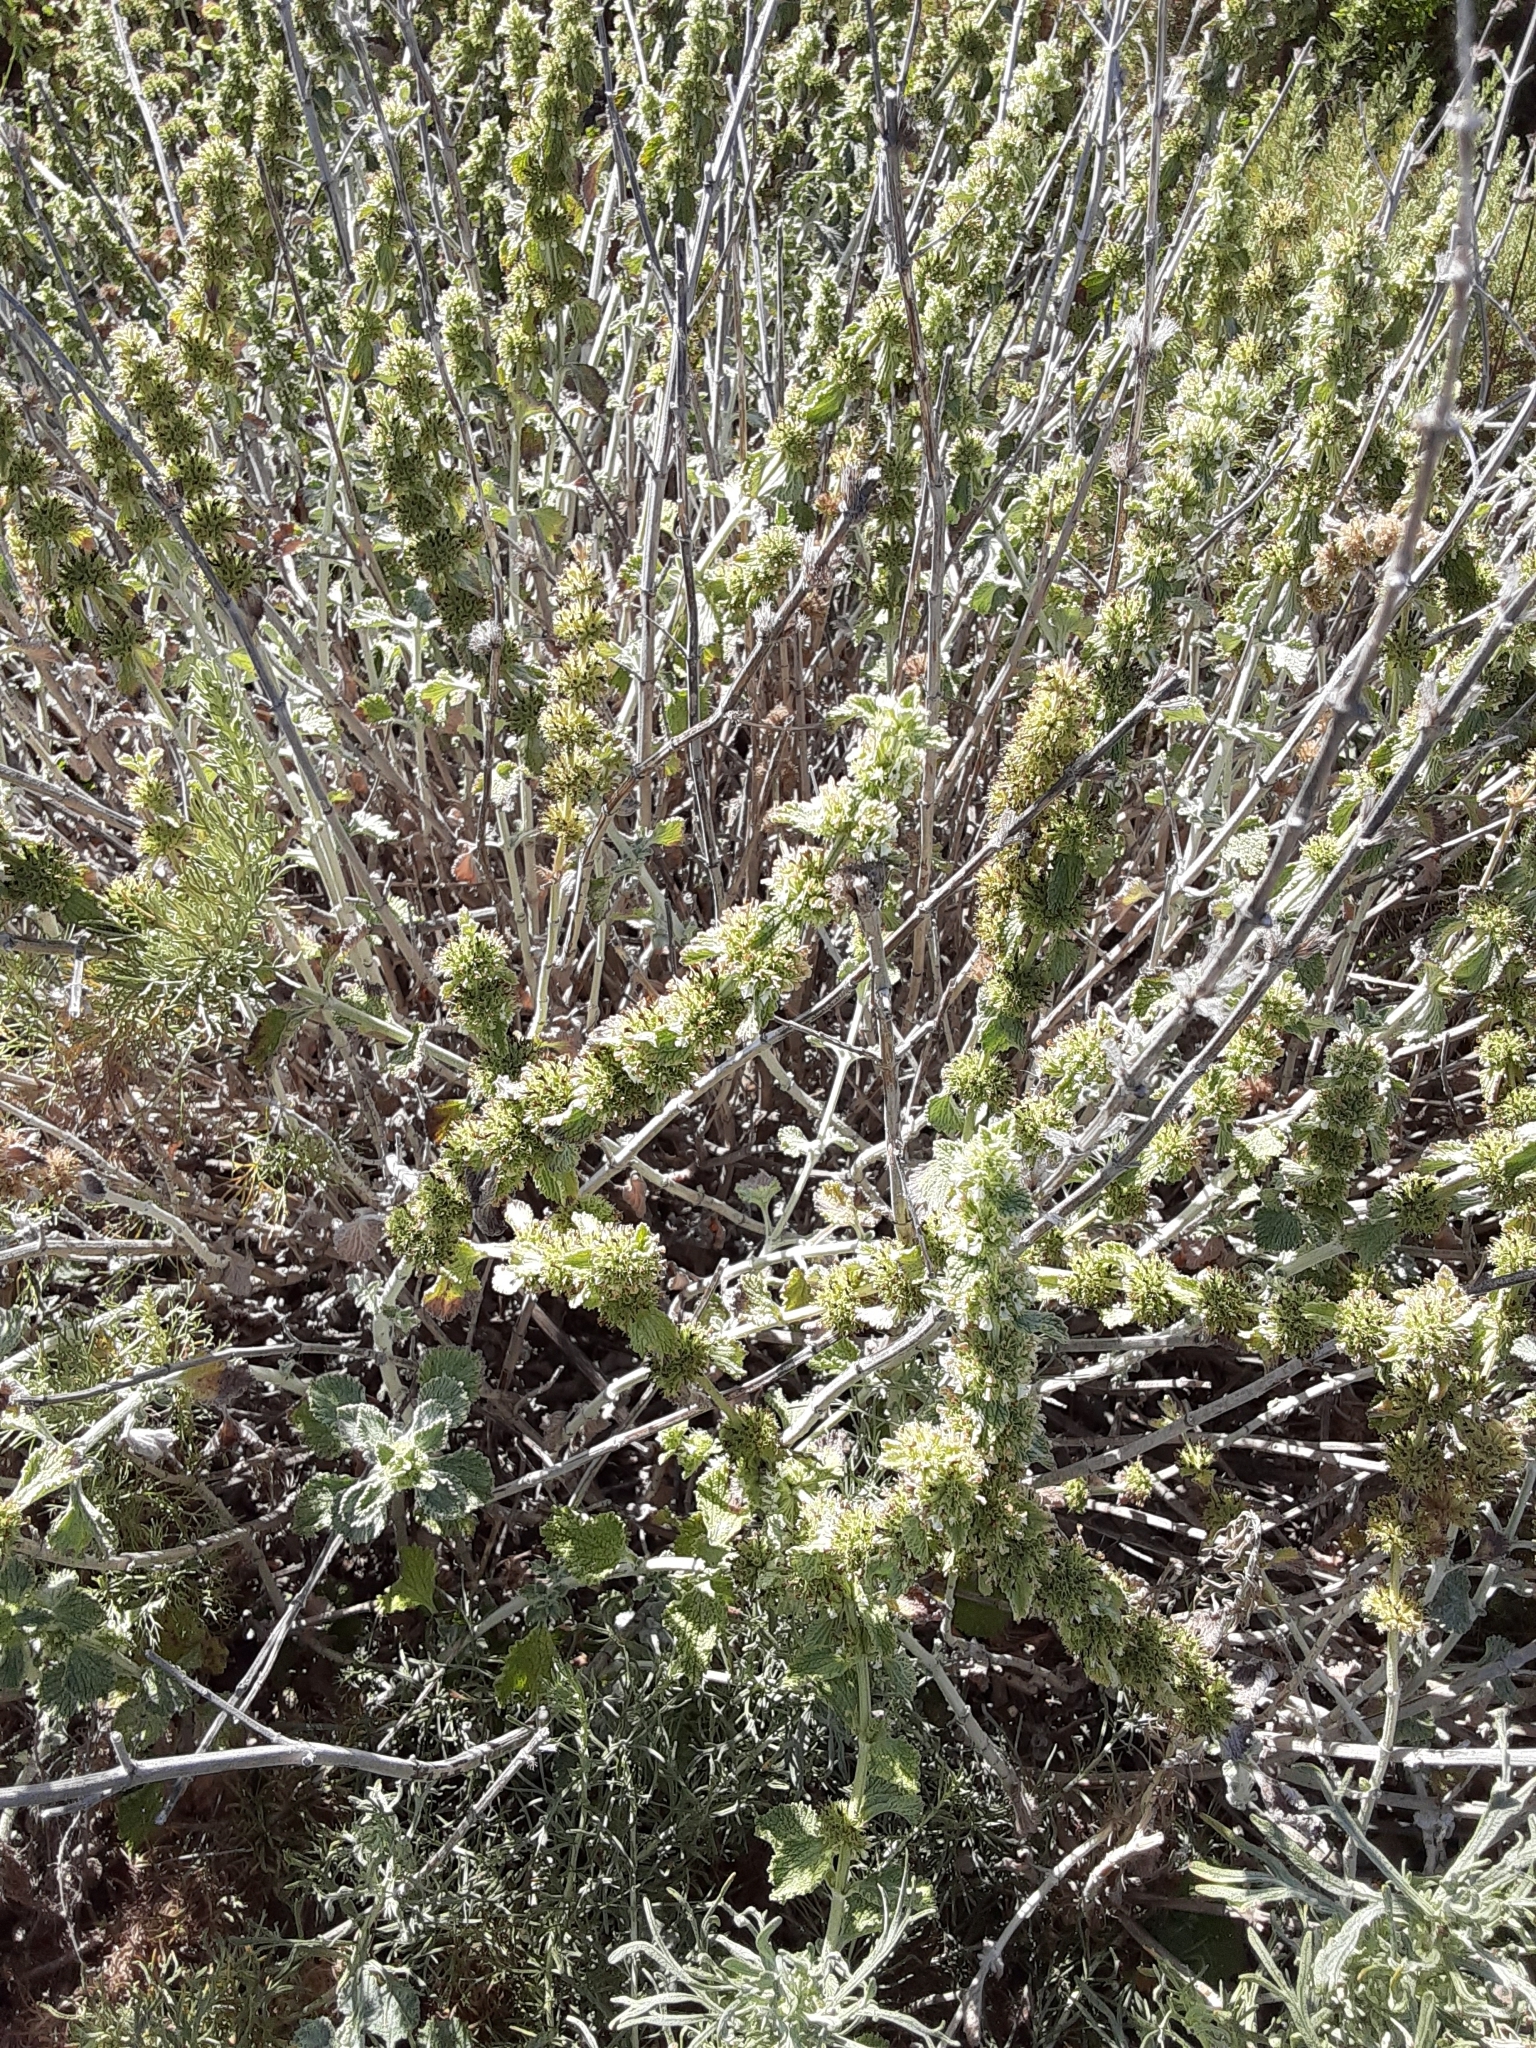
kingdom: Plantae
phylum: Tracheophyta
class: Magnoliopsida
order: Lamiales
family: Lamiaceae
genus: Marrubium
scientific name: Marrubium vulgare
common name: Horehound
